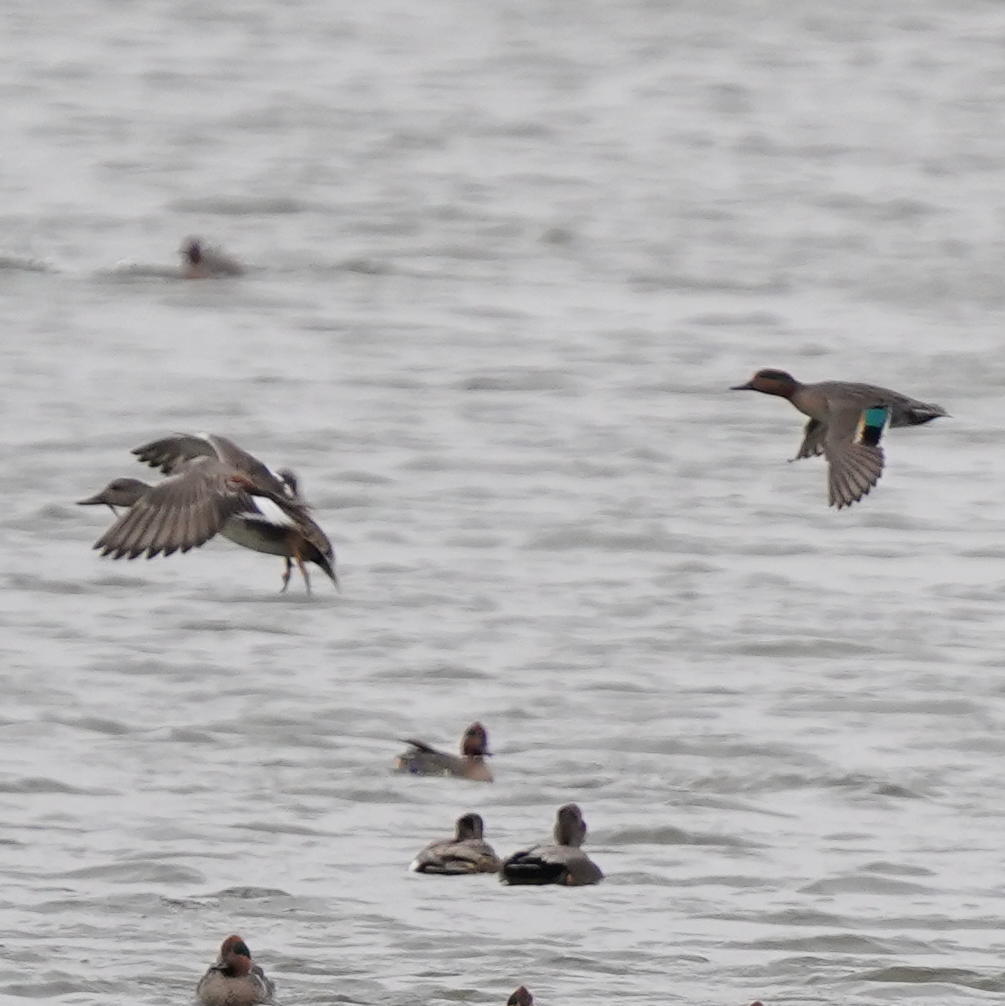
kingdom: Animalia
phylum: Chordata
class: Aves
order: Anseriformes
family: Anatidae
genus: Anas
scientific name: Anas crecca
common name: Eurasian teal
